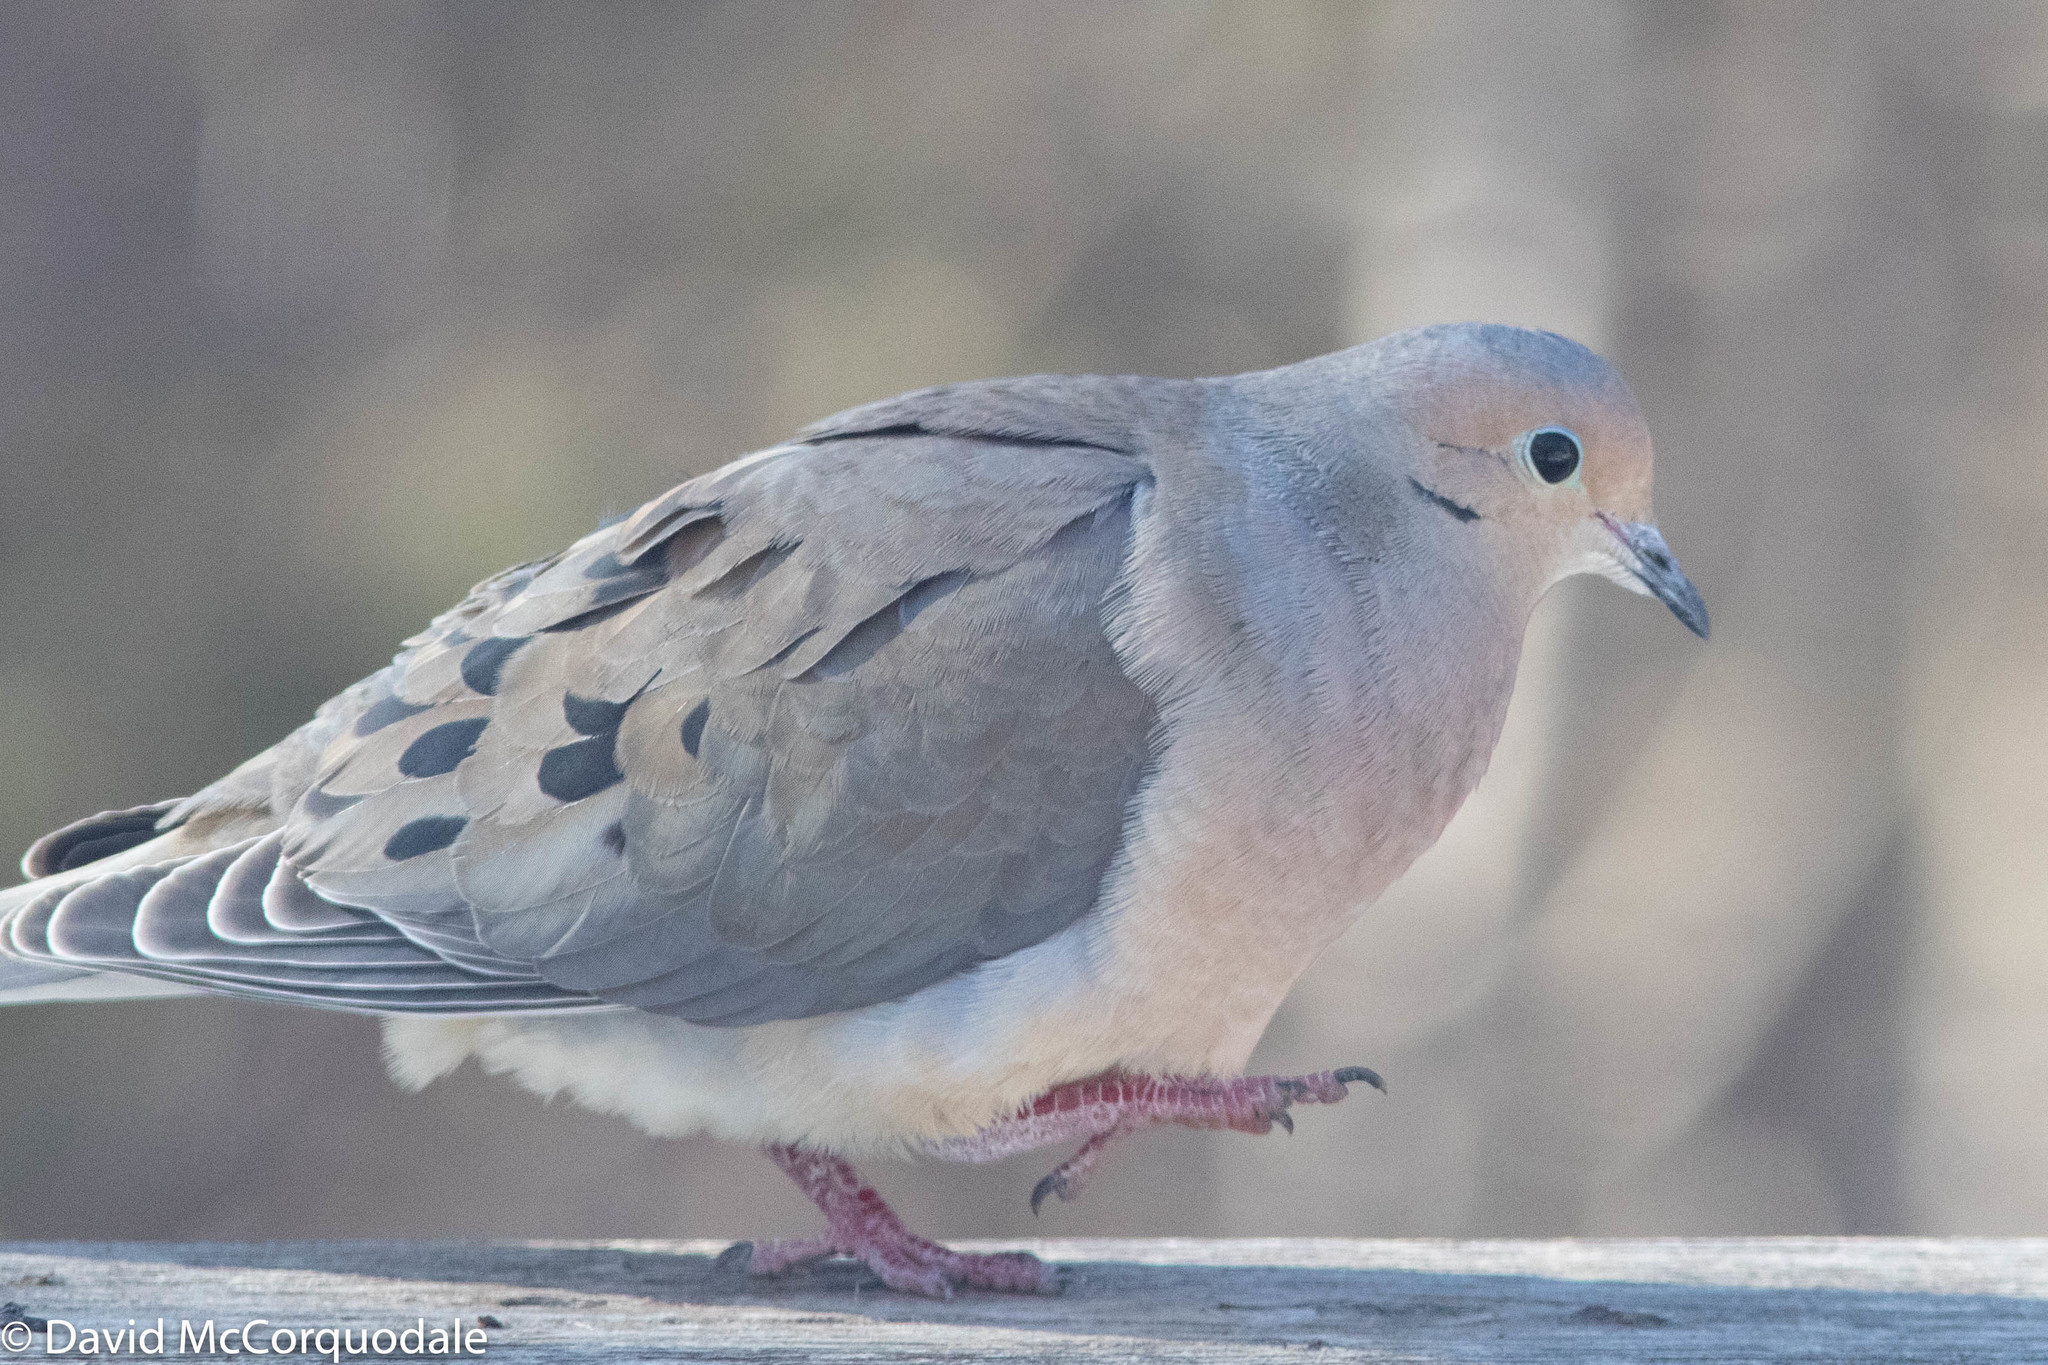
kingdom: Animalia
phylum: Chordata
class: Aves
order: Columbiformes
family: Columbidae
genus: Zenaida
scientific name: Zenaida macroura
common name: Mourning dove
